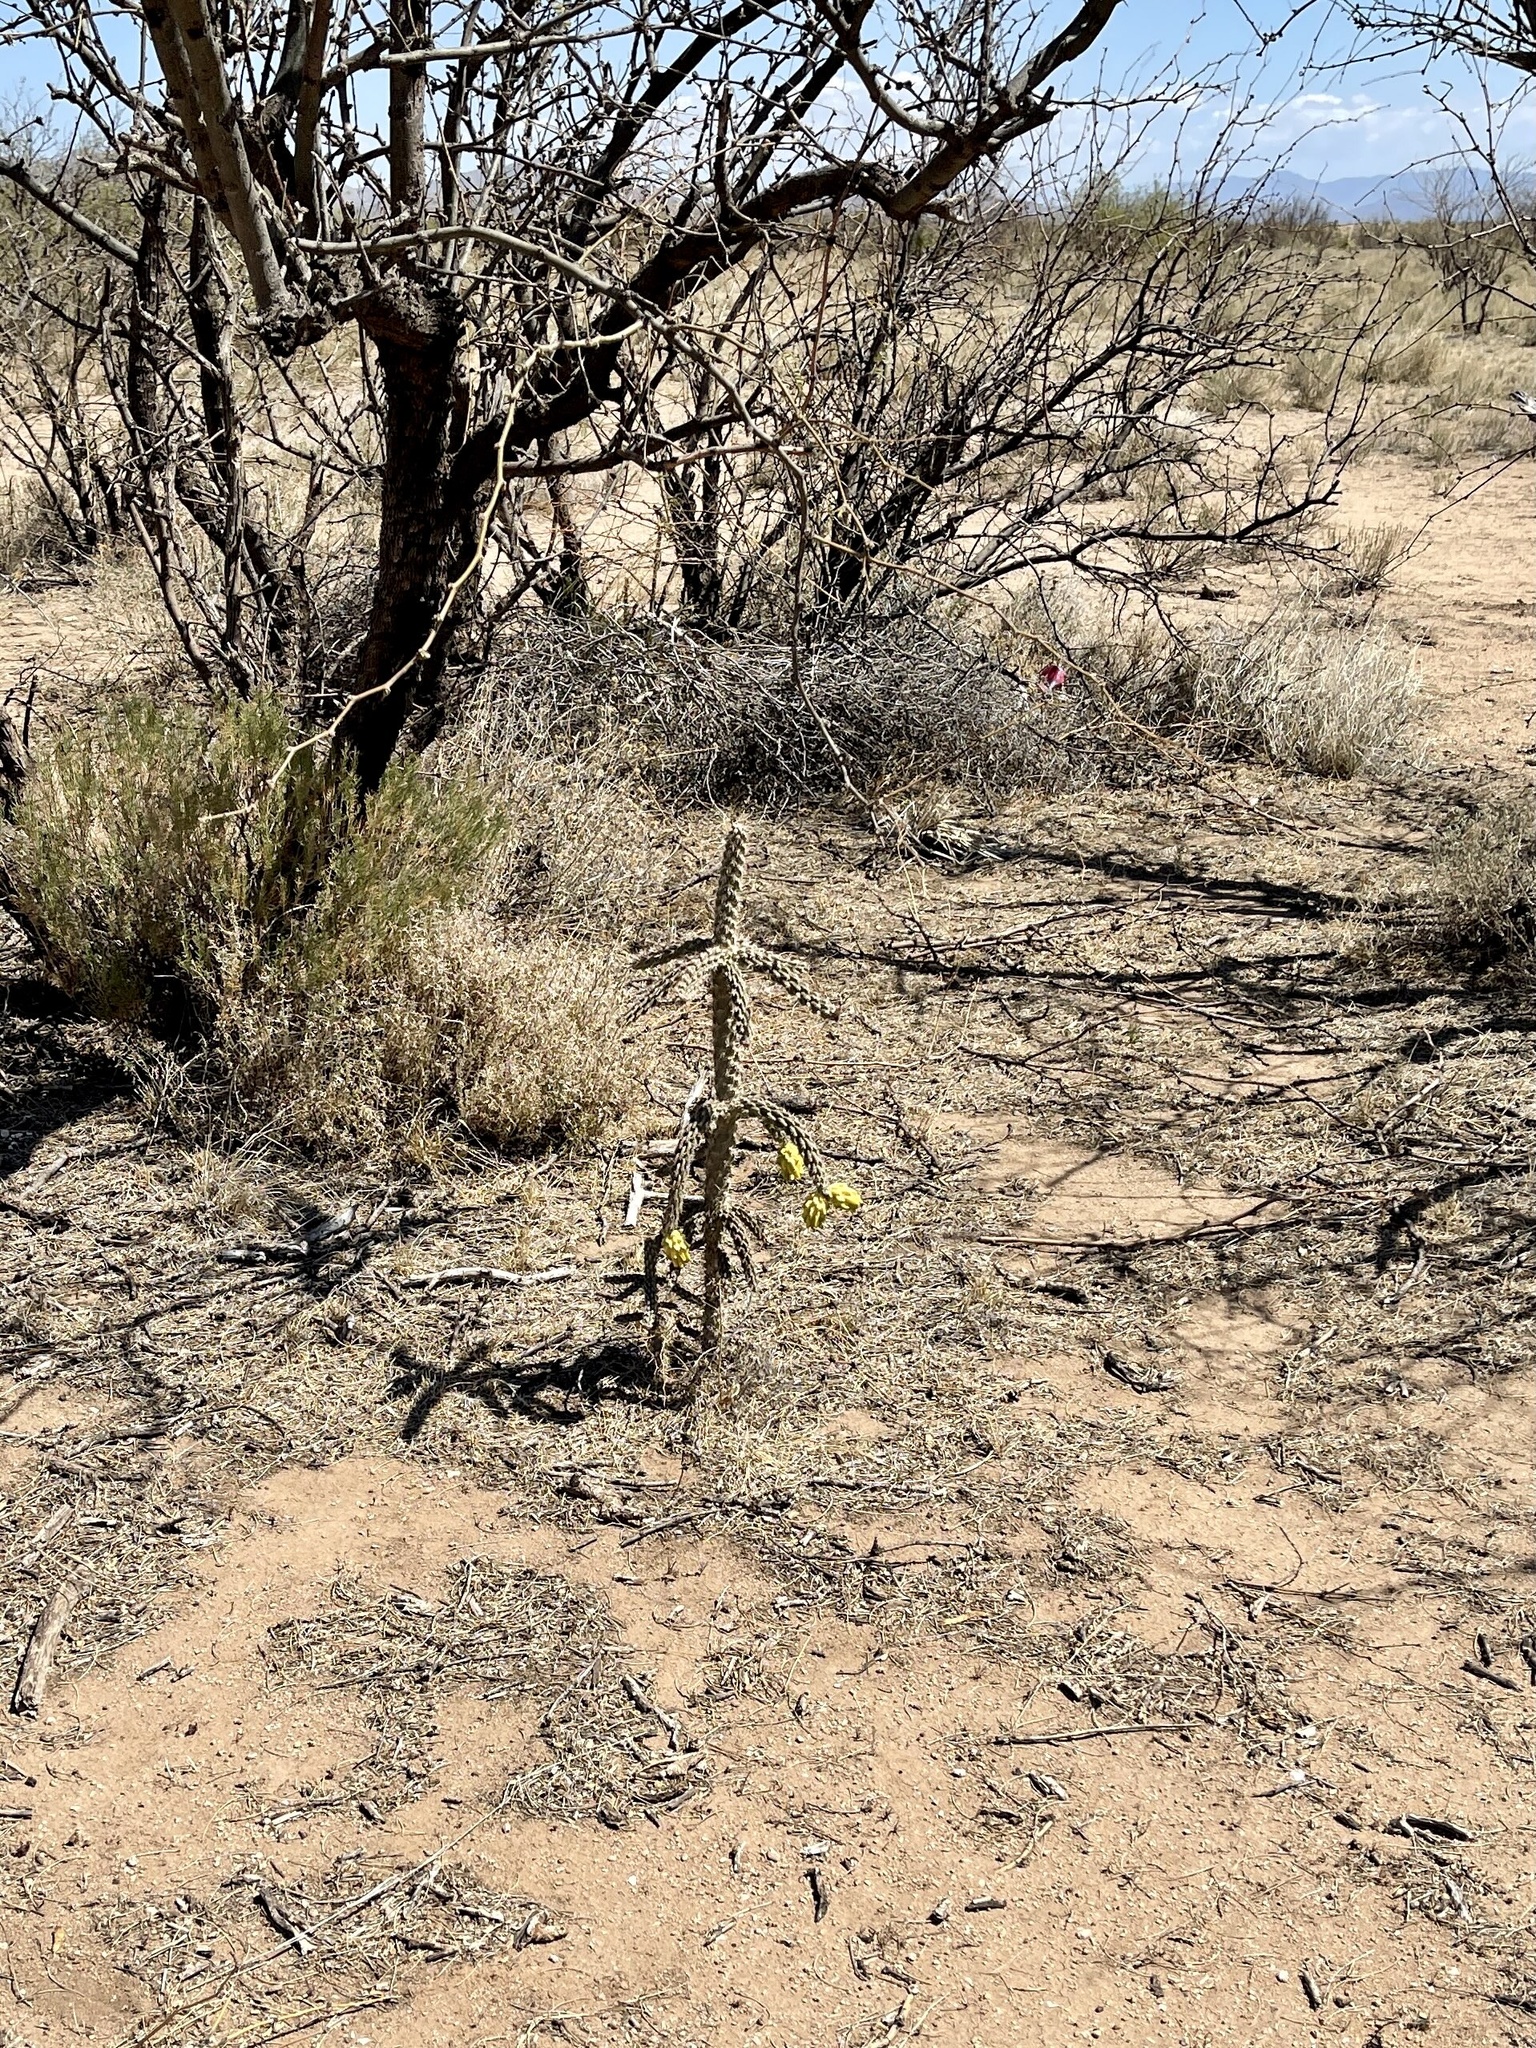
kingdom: Plantae
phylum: Tracheophyta
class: Magnoliopsida
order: Caryophyllales
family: Cactaceae
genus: Cylindropuntia
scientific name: Cylindropuntia imbricata
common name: Candelabrum cactus
